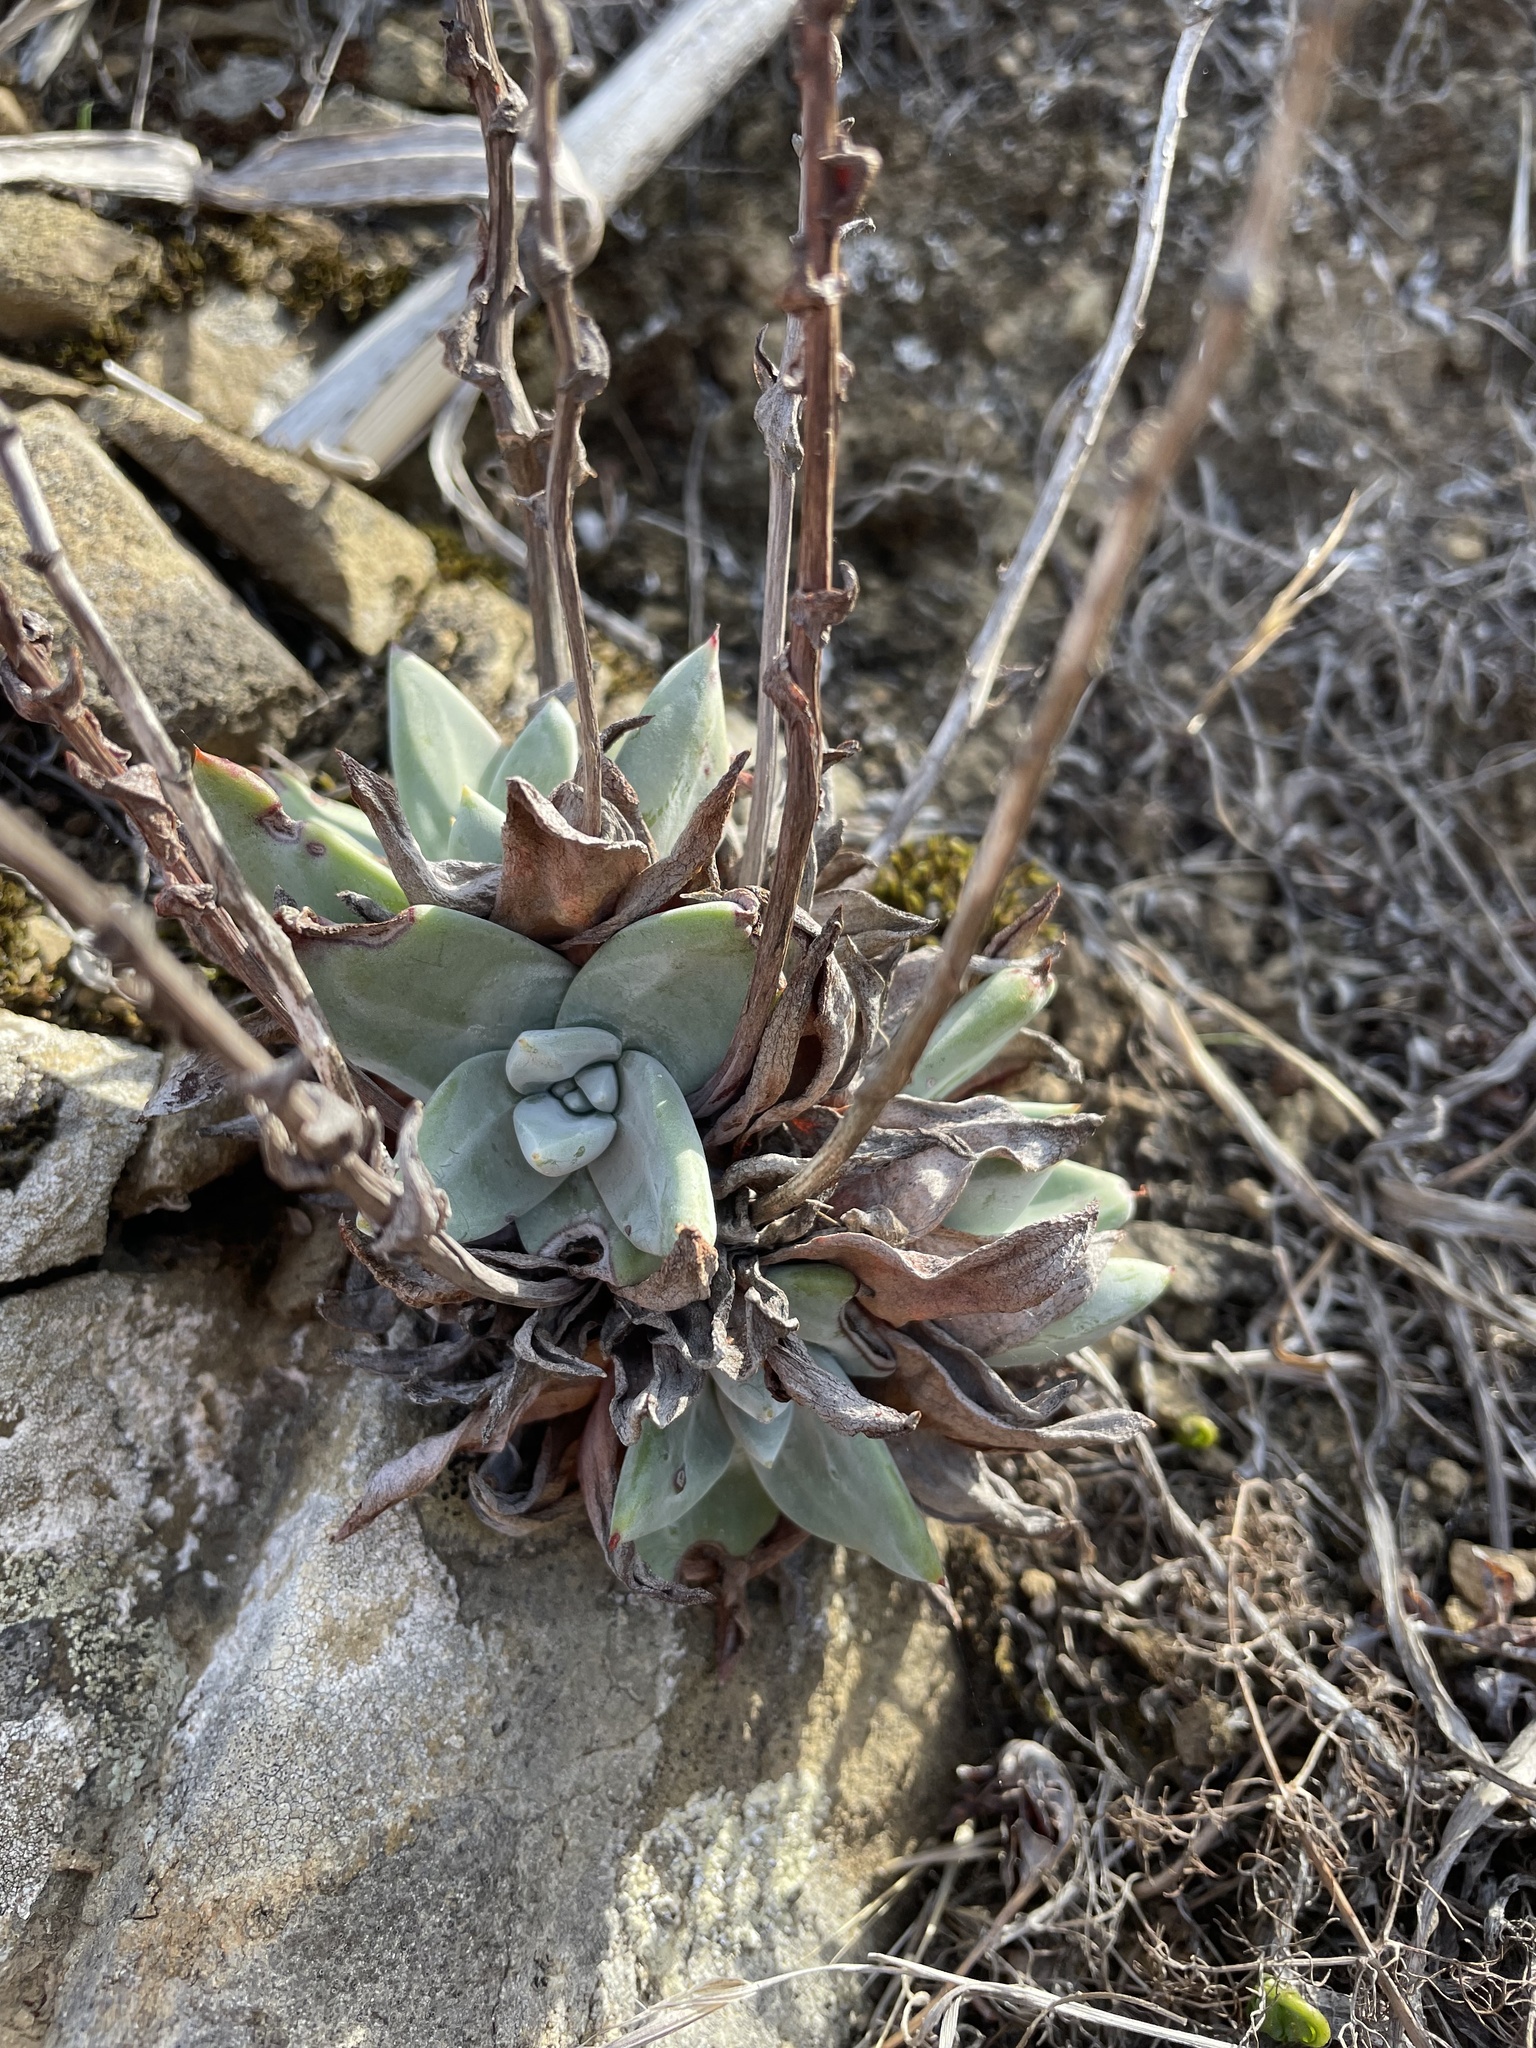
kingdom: Plantae
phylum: Tracheophyta
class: Magnoliopsida
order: Saxifragales
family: Crassulaceae
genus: Dudleya
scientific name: Dudleya farinosa
